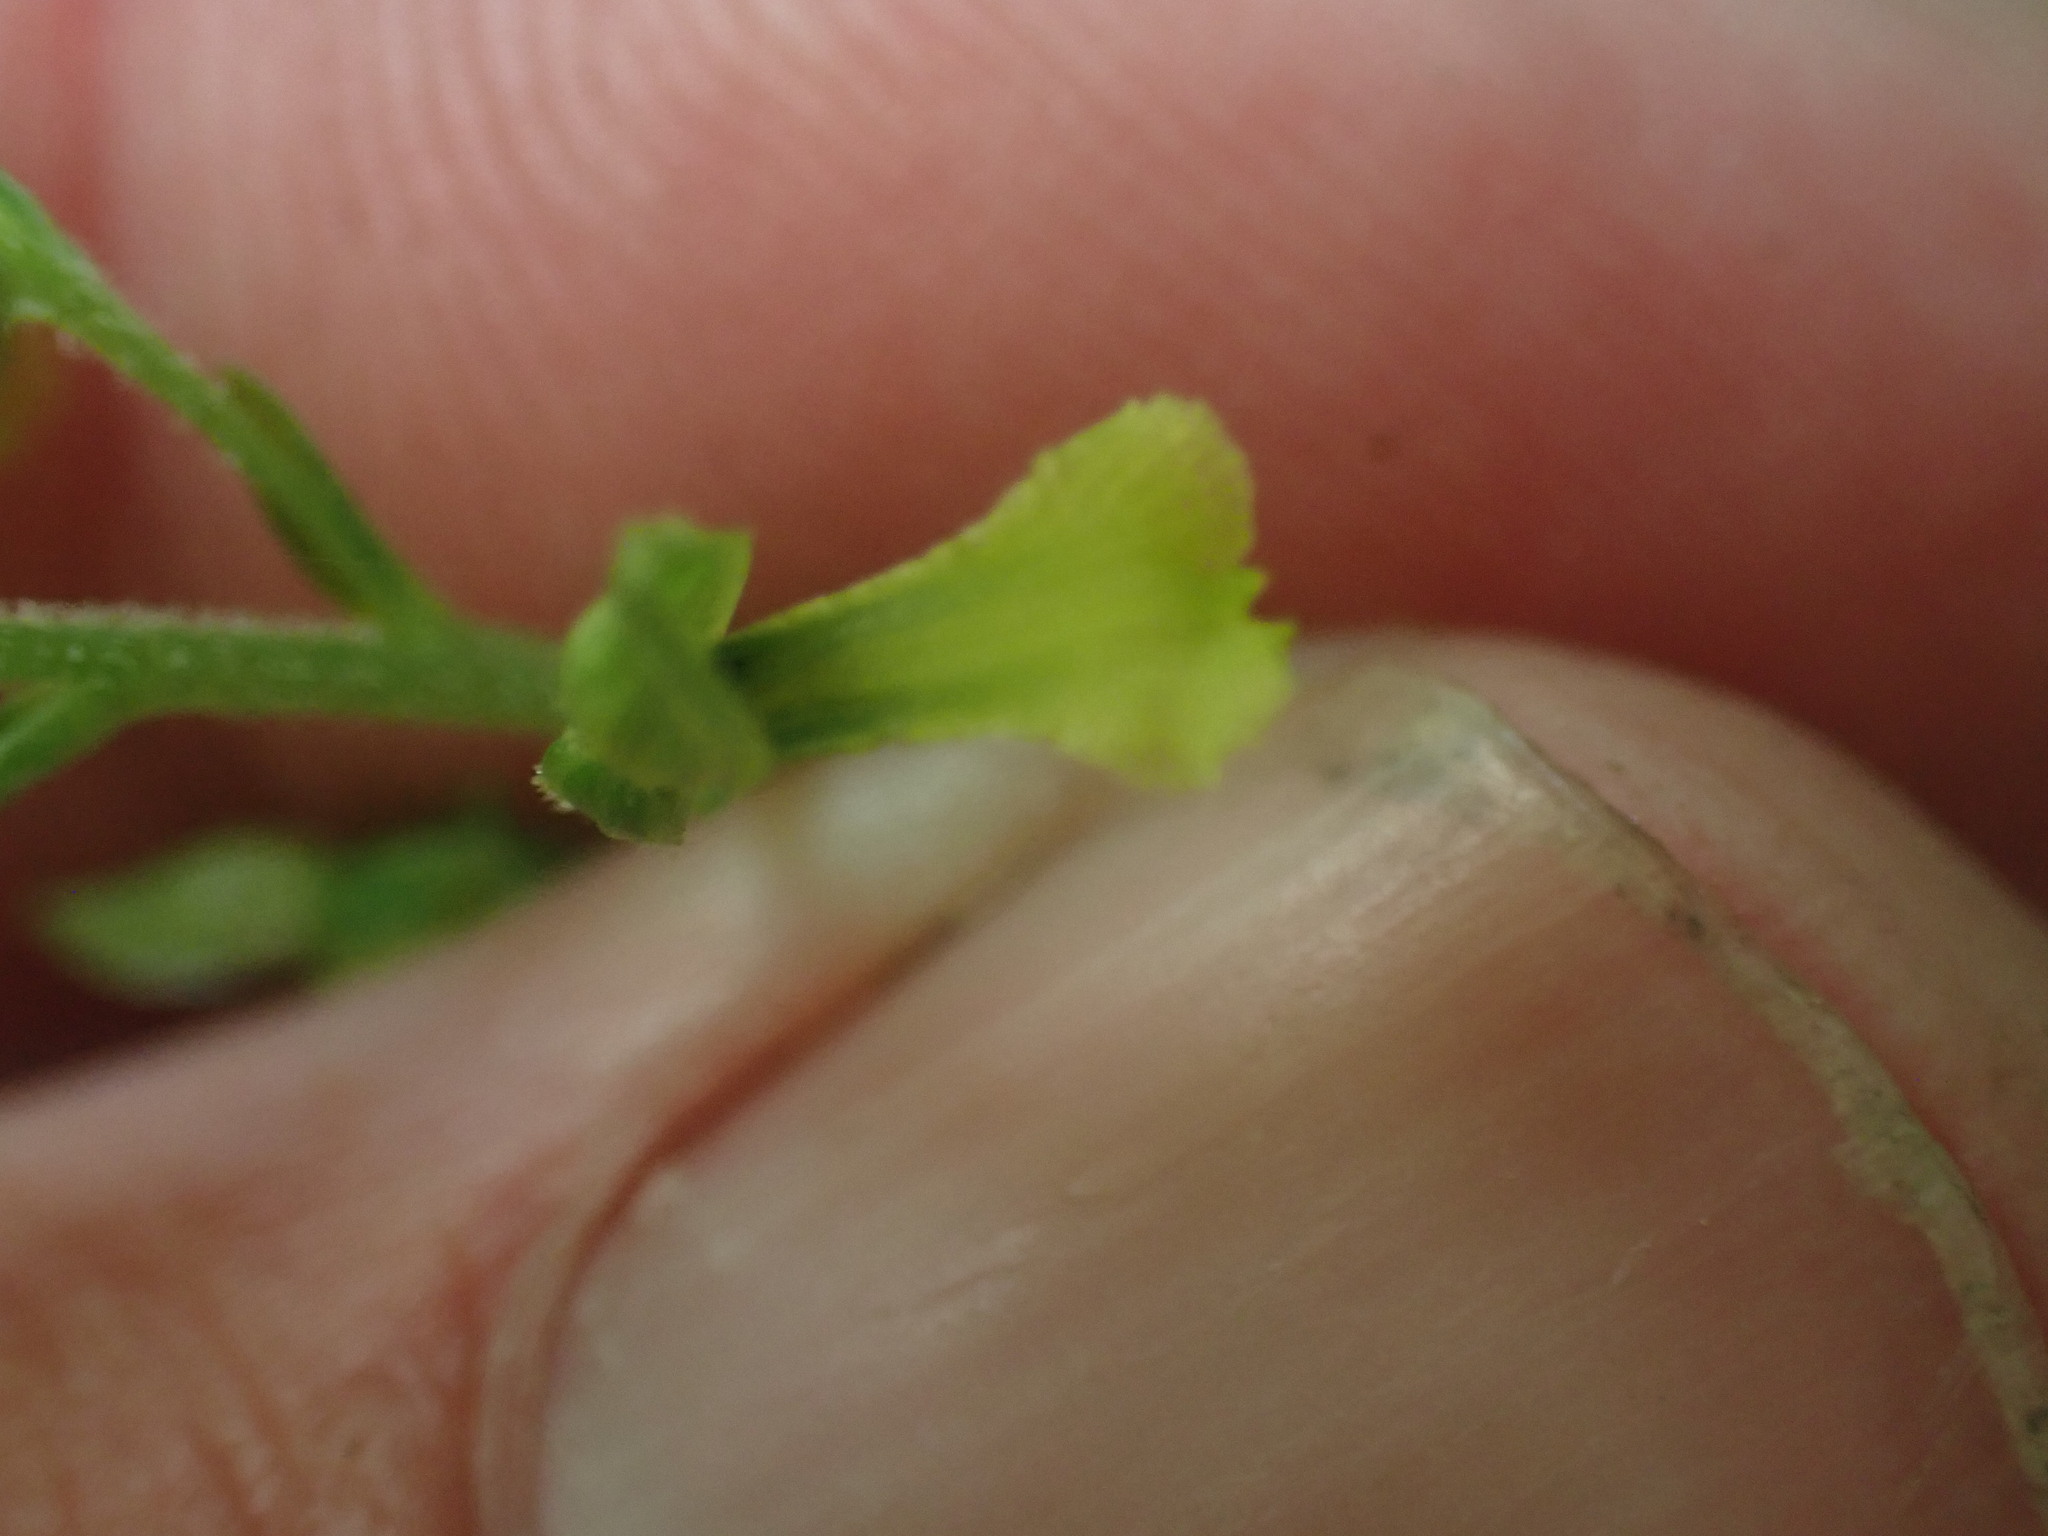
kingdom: Plantae
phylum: Tracheophyta
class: Liliopsida
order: Asparagales
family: Orchidaceae
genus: Neottia
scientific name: Neottia banksiana
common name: Northwestern twayblade
